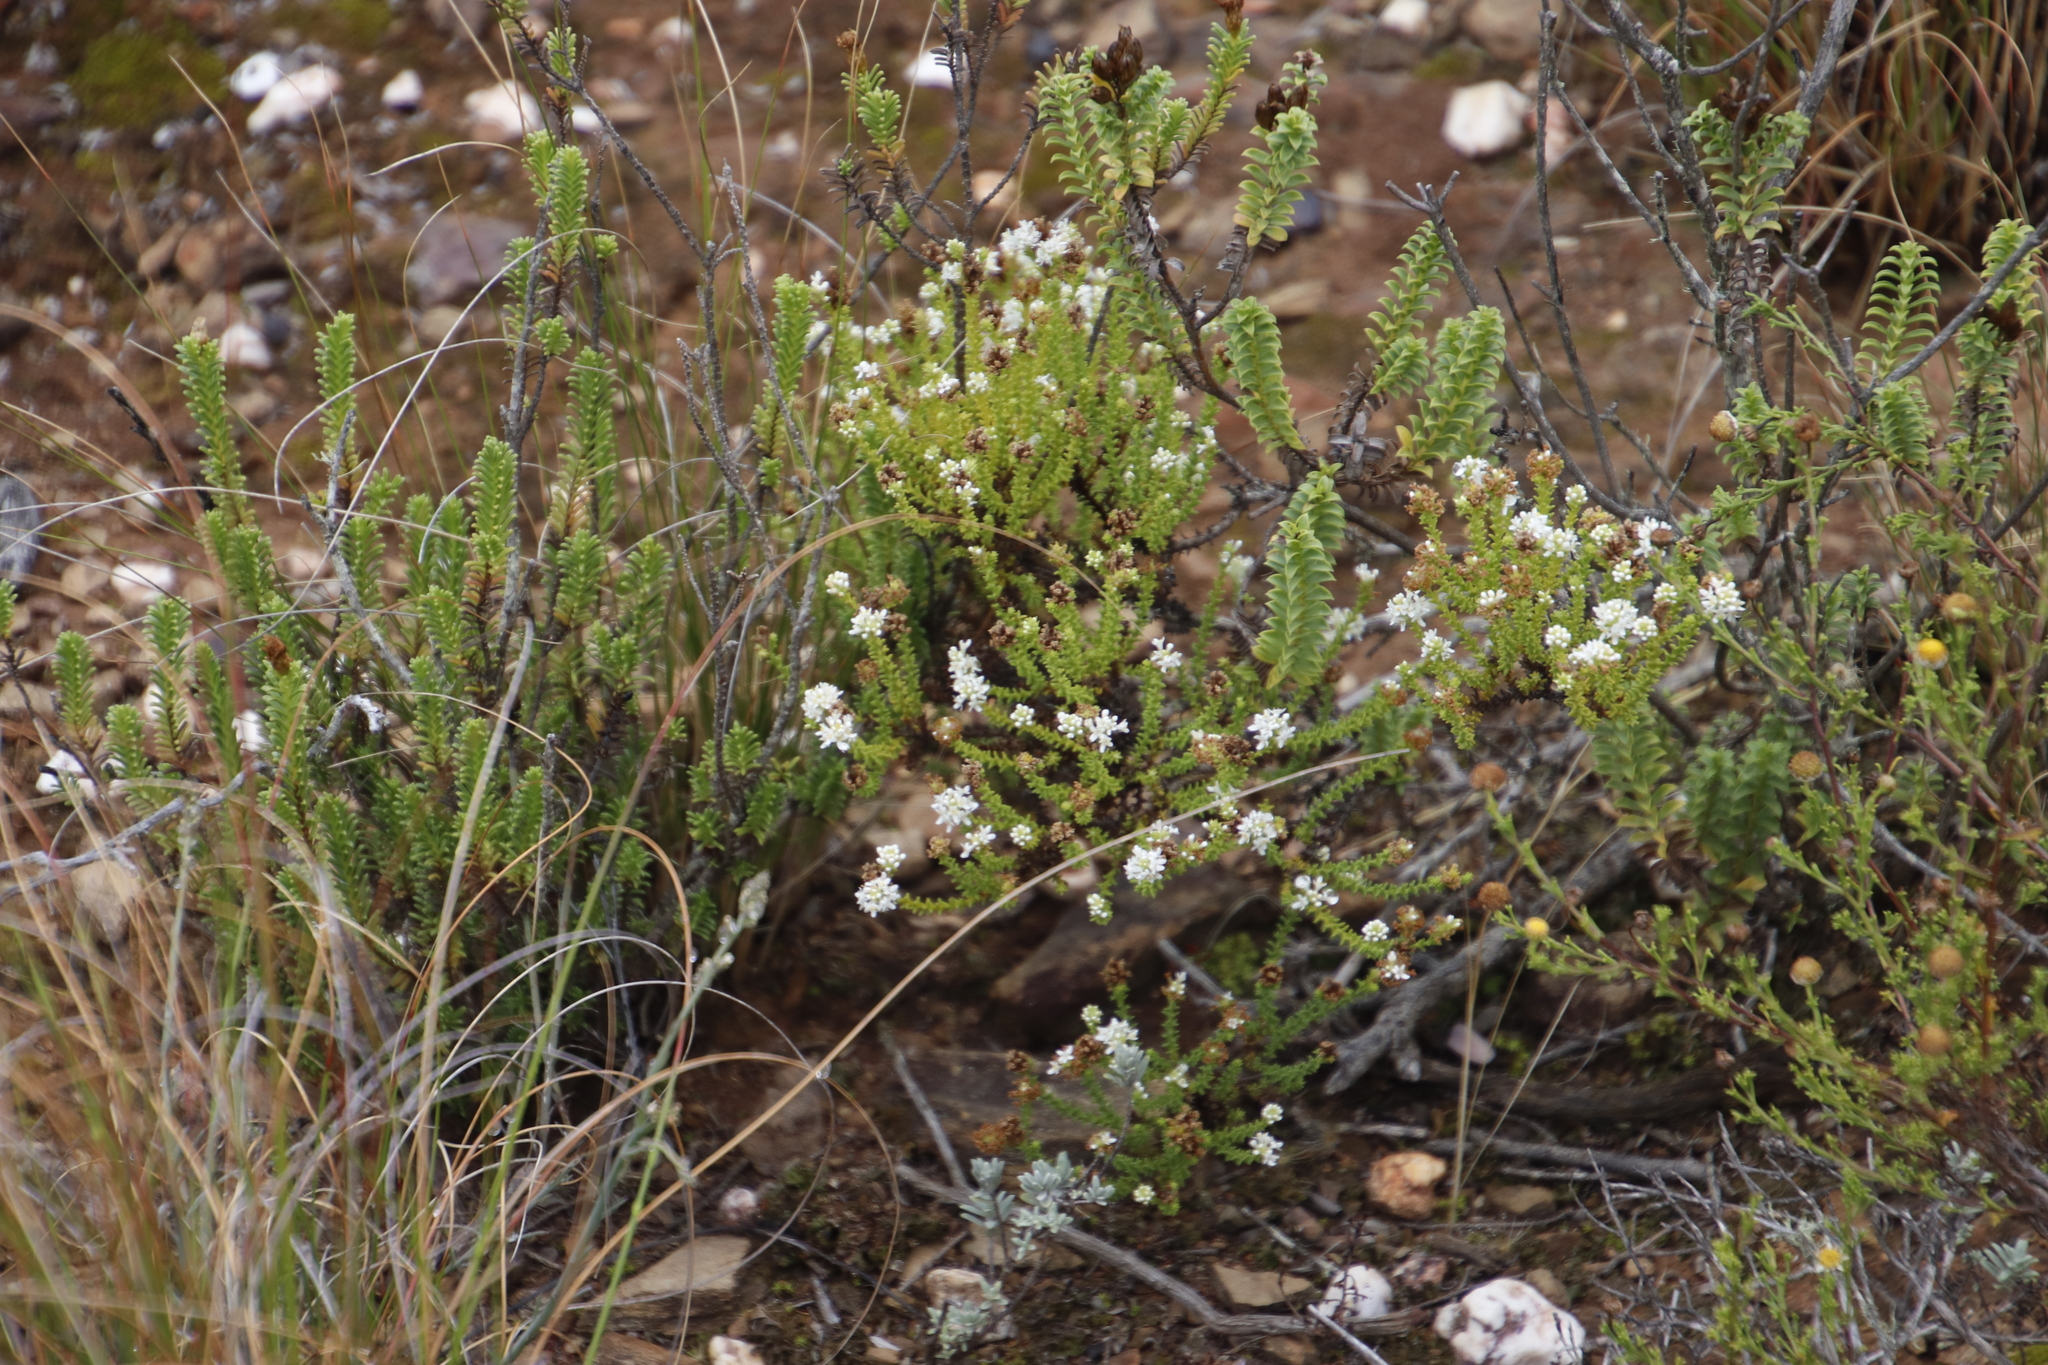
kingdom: Plantae
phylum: Tracheophyta
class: Magnoliopsida
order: Lamiales
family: Scrophulariaceae
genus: Selago
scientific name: Selago ramosissima
